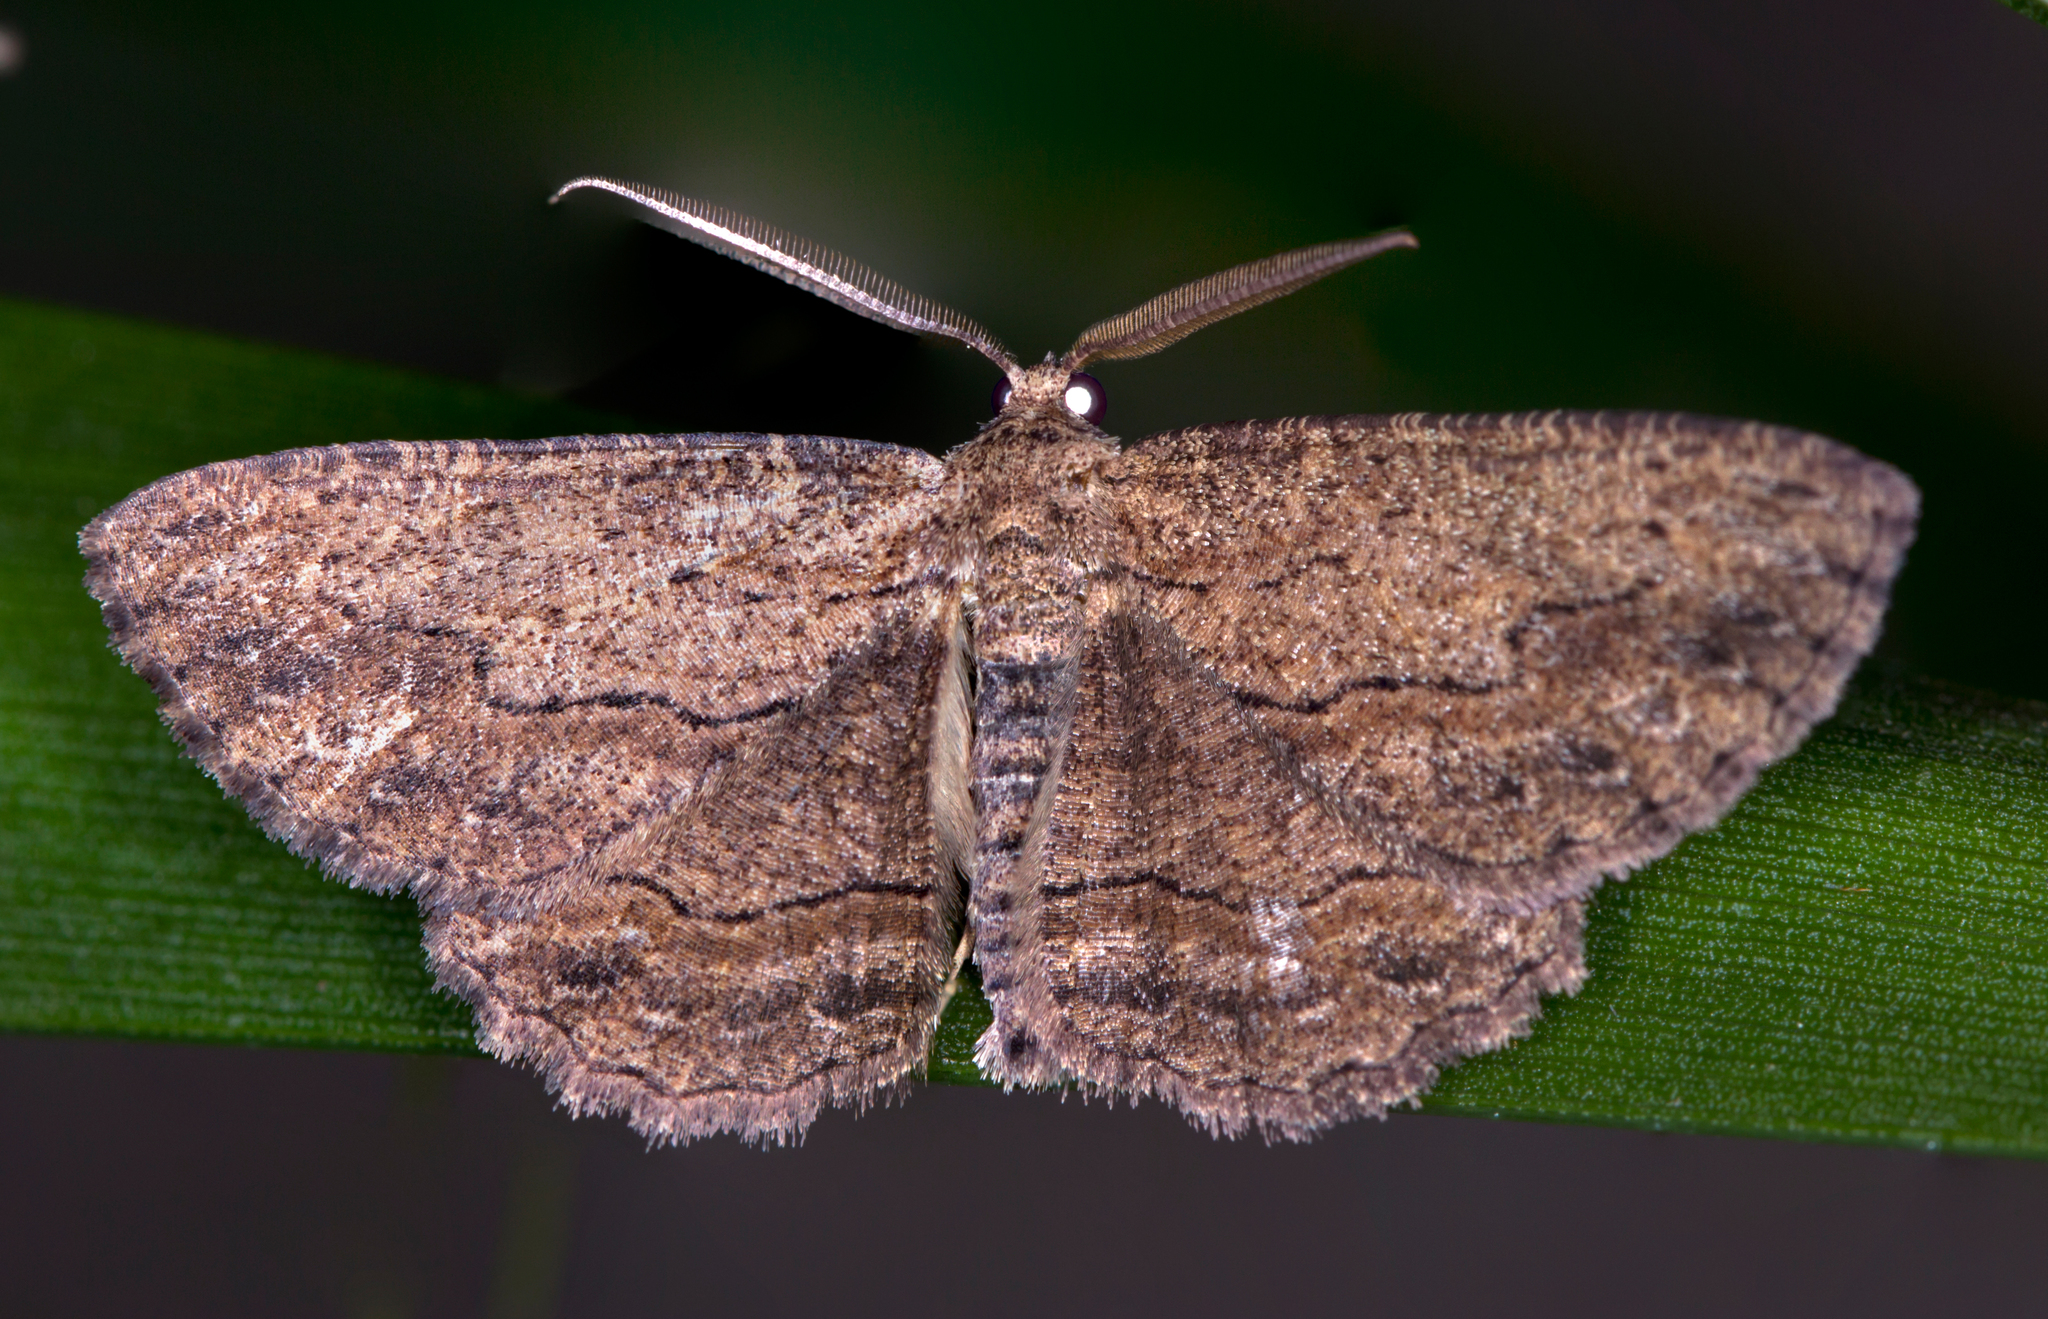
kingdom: Animalia
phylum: Arthropoda
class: Insecta
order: Lepidoptera
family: Geometridae
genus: Ectropis
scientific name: Ectropis excursaria
